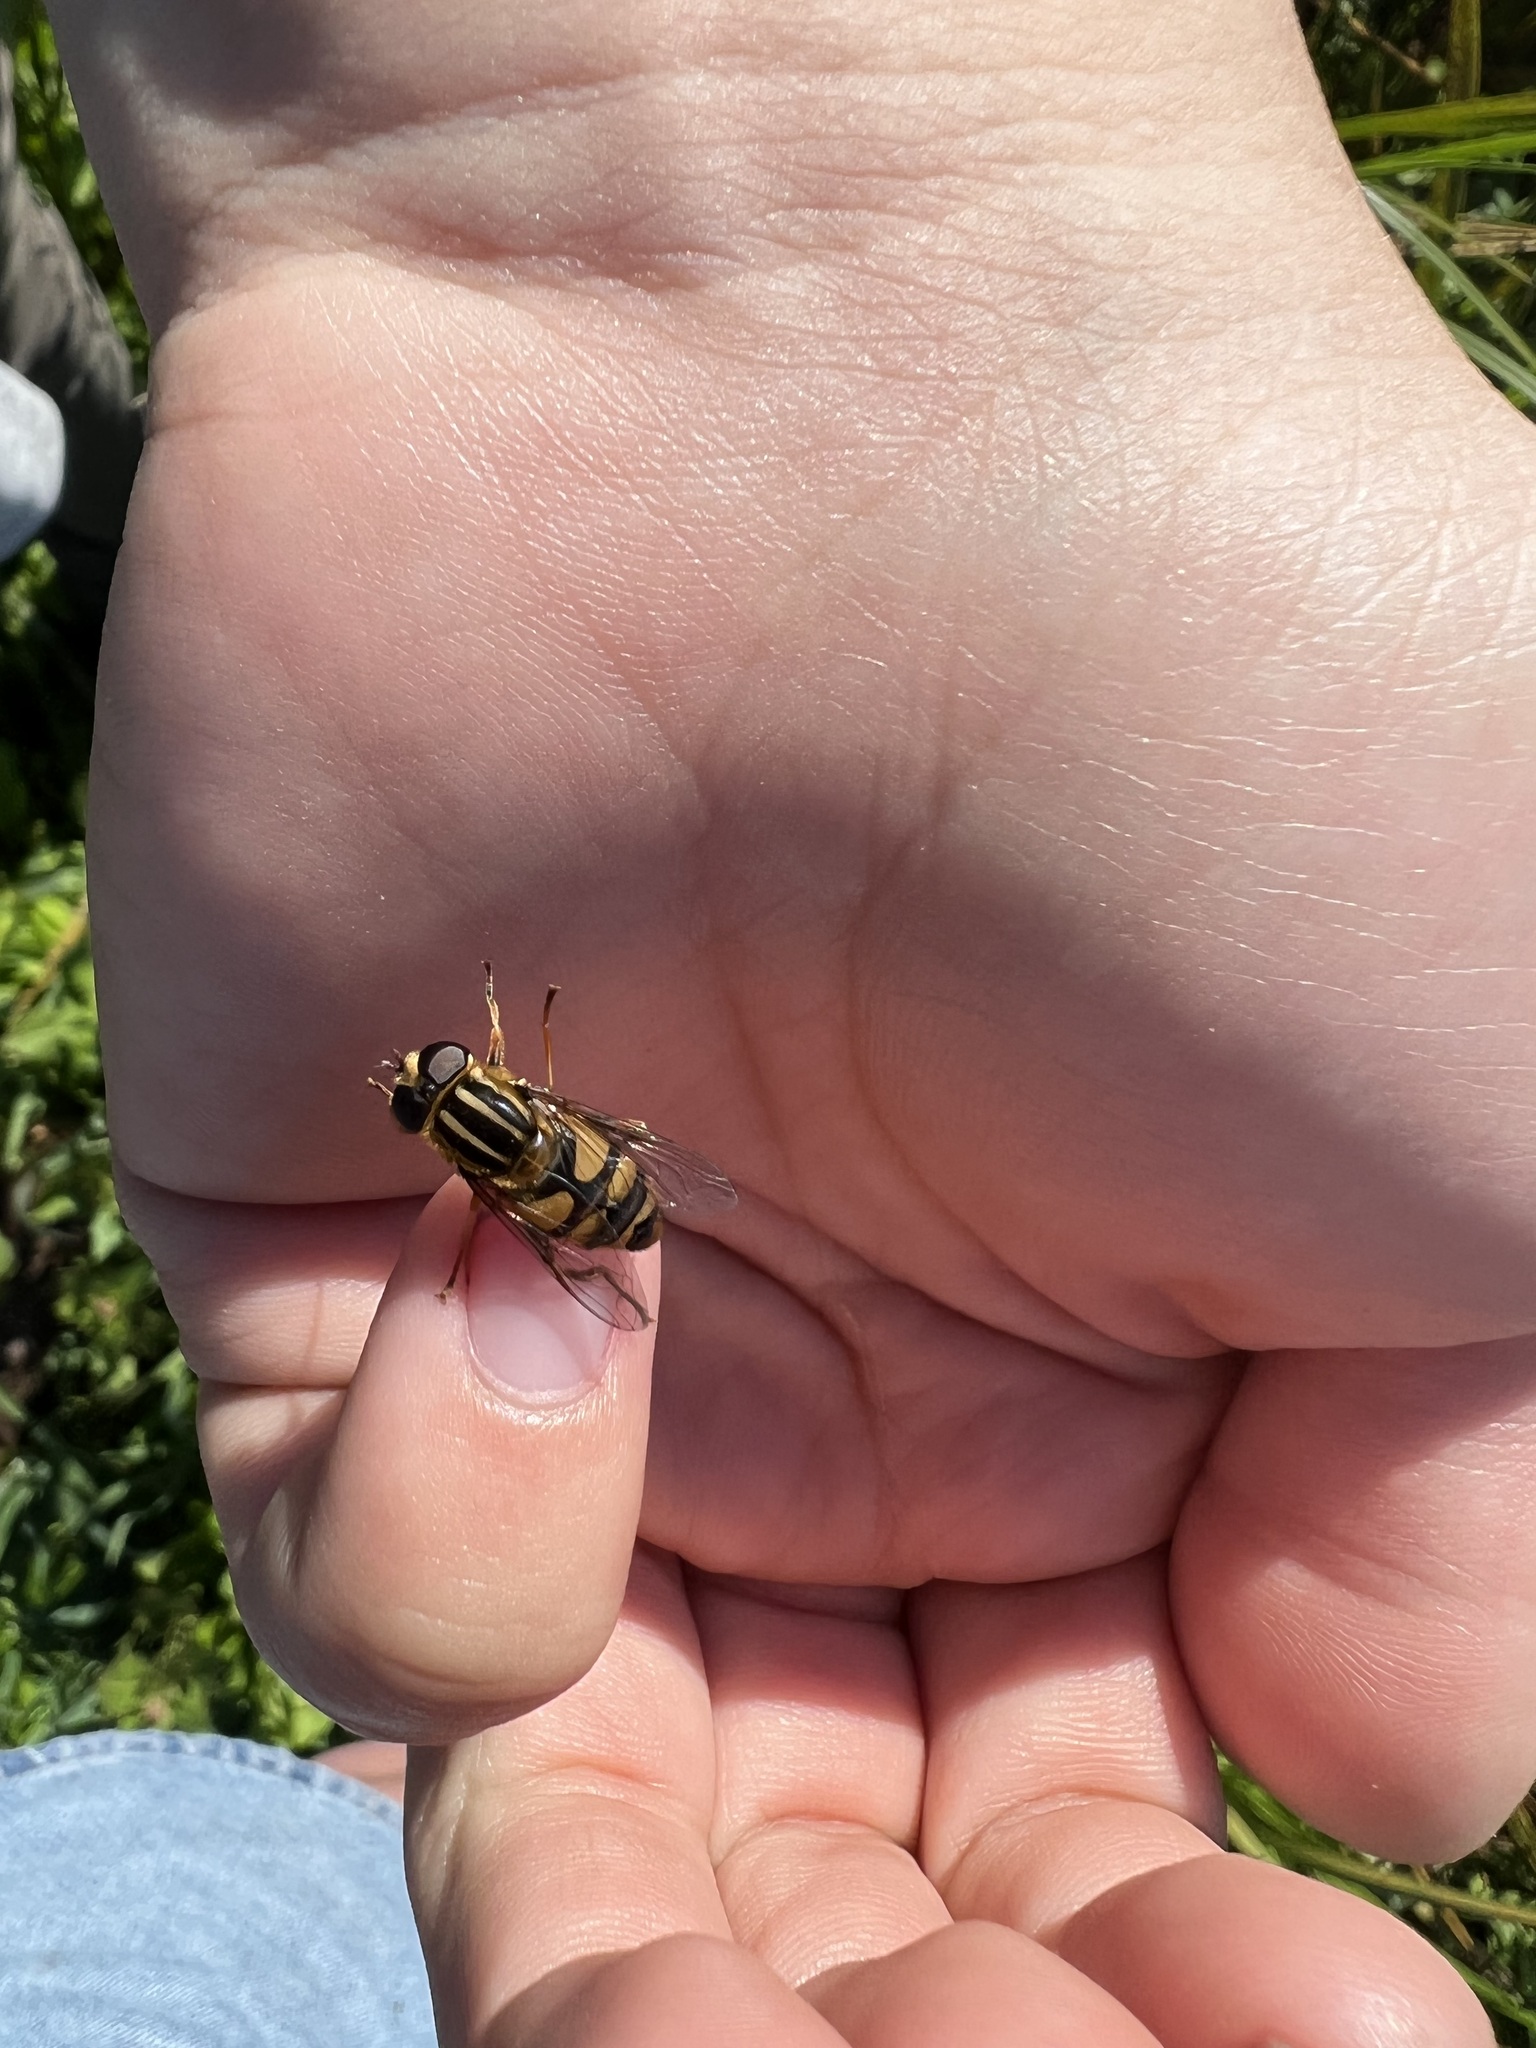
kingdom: Animalia
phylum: Arthropoda
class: Insecta
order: Diptera
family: Syrphidae
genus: Helophilus
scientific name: Helophilus fasciatus
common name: Narrow-headed marsh fly
